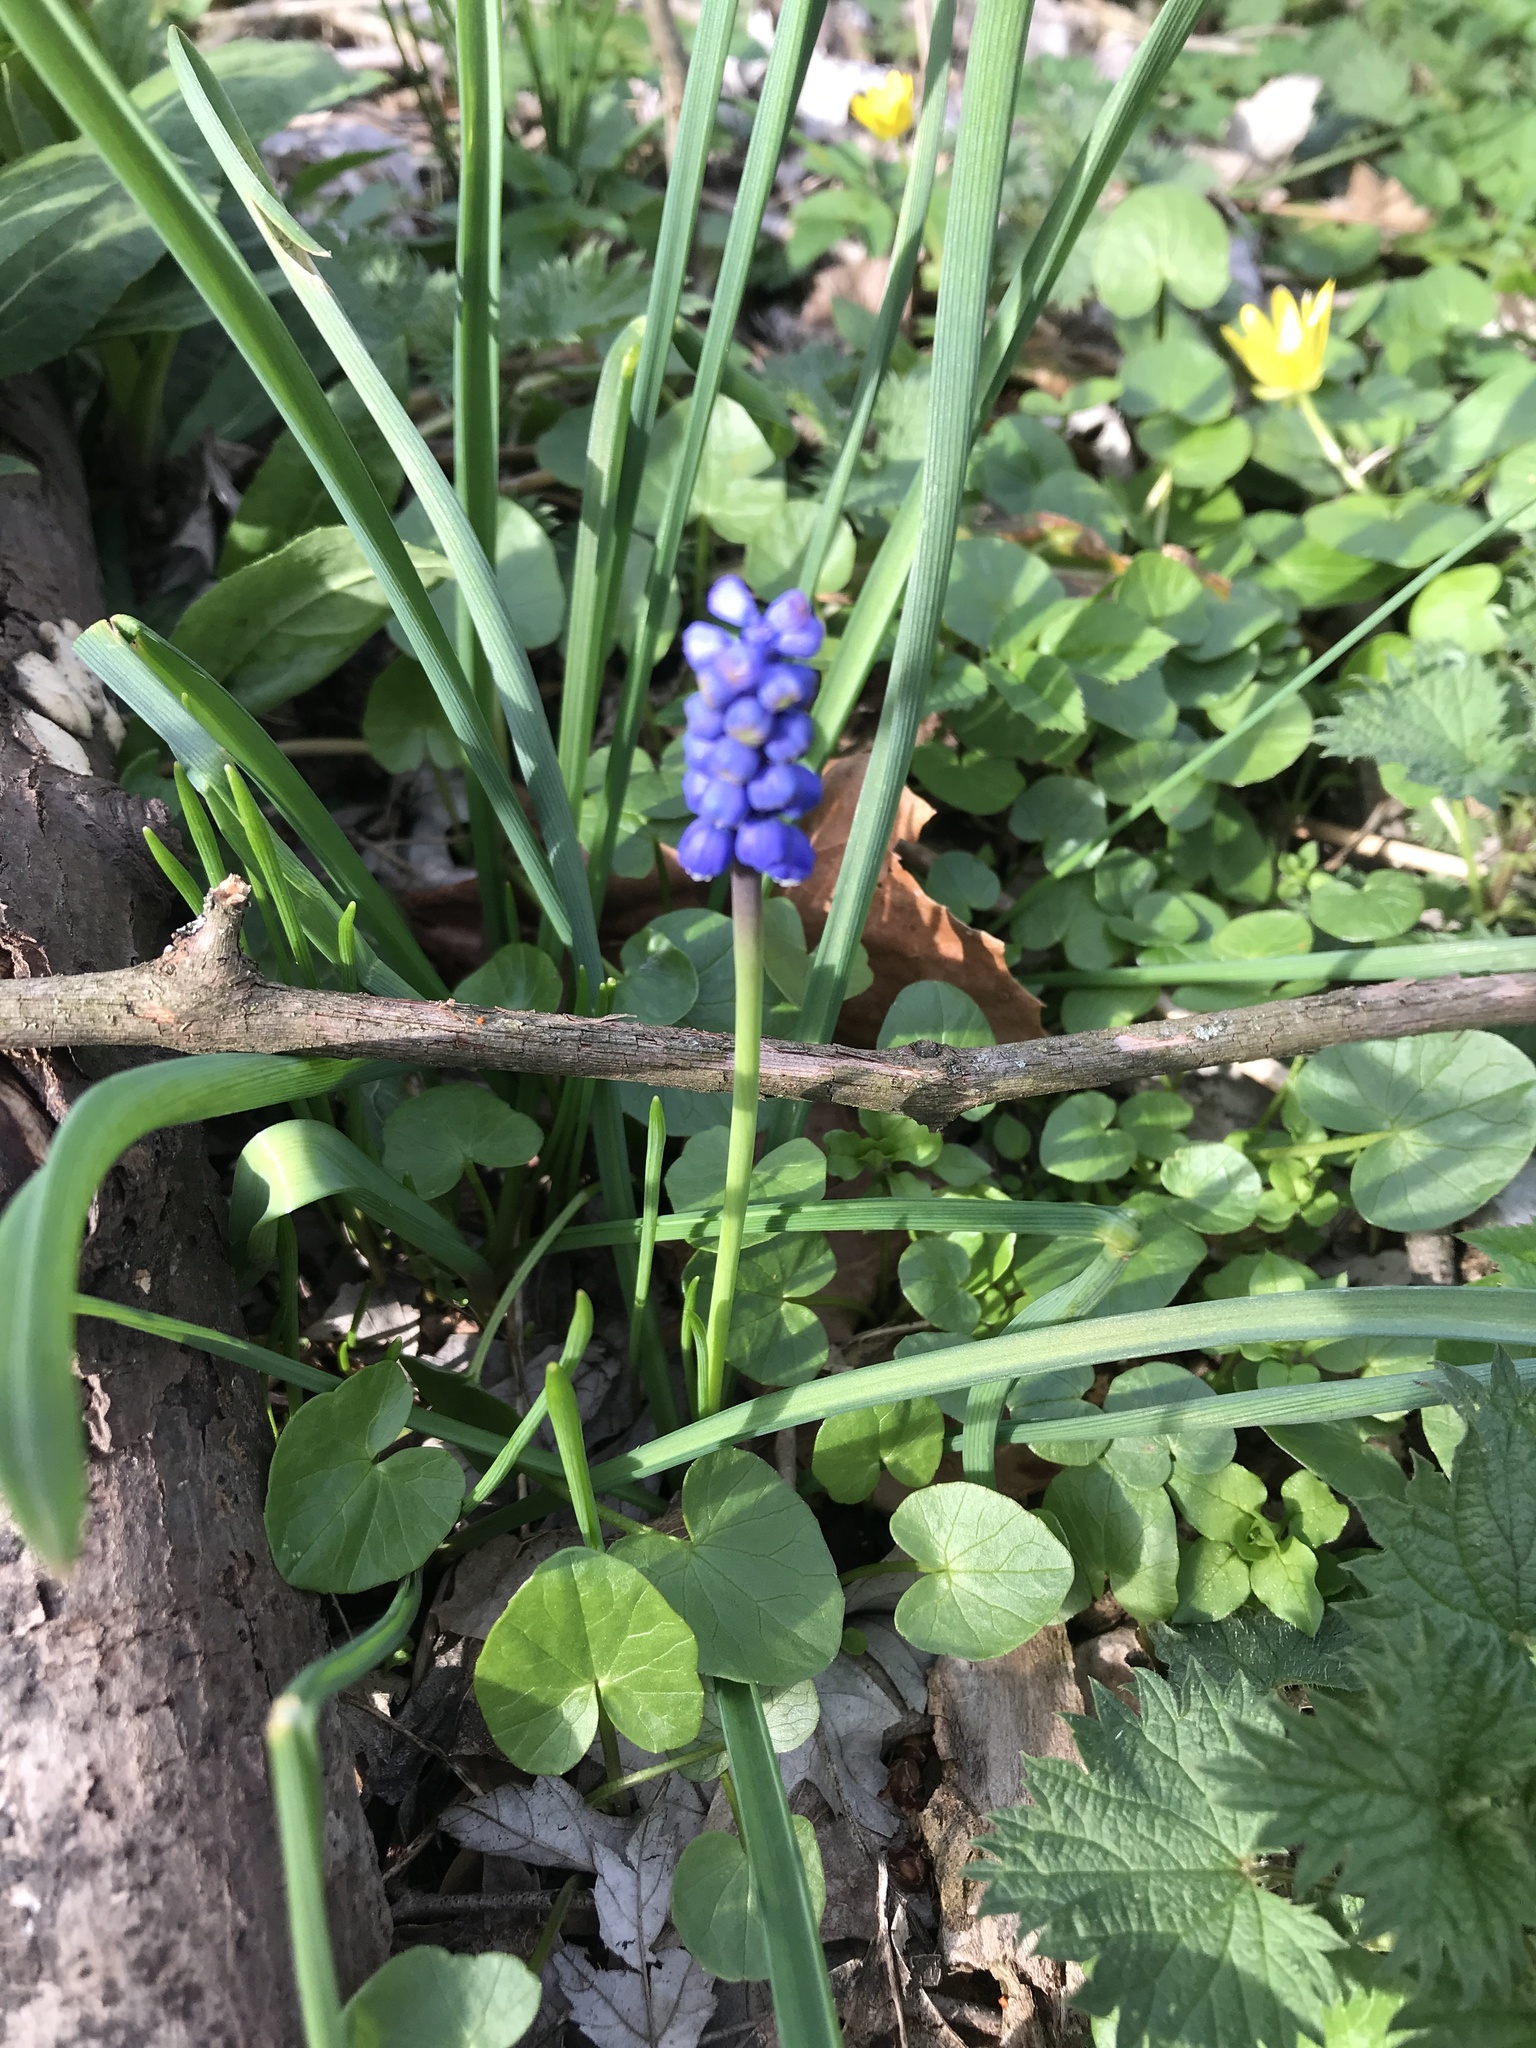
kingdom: Plantae
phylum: Tracheophyta
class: Liliopsida
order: Asparagales
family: Asparagaceae
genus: Muscari
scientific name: Muscari botryoides
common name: Compact grape-hyacinth
